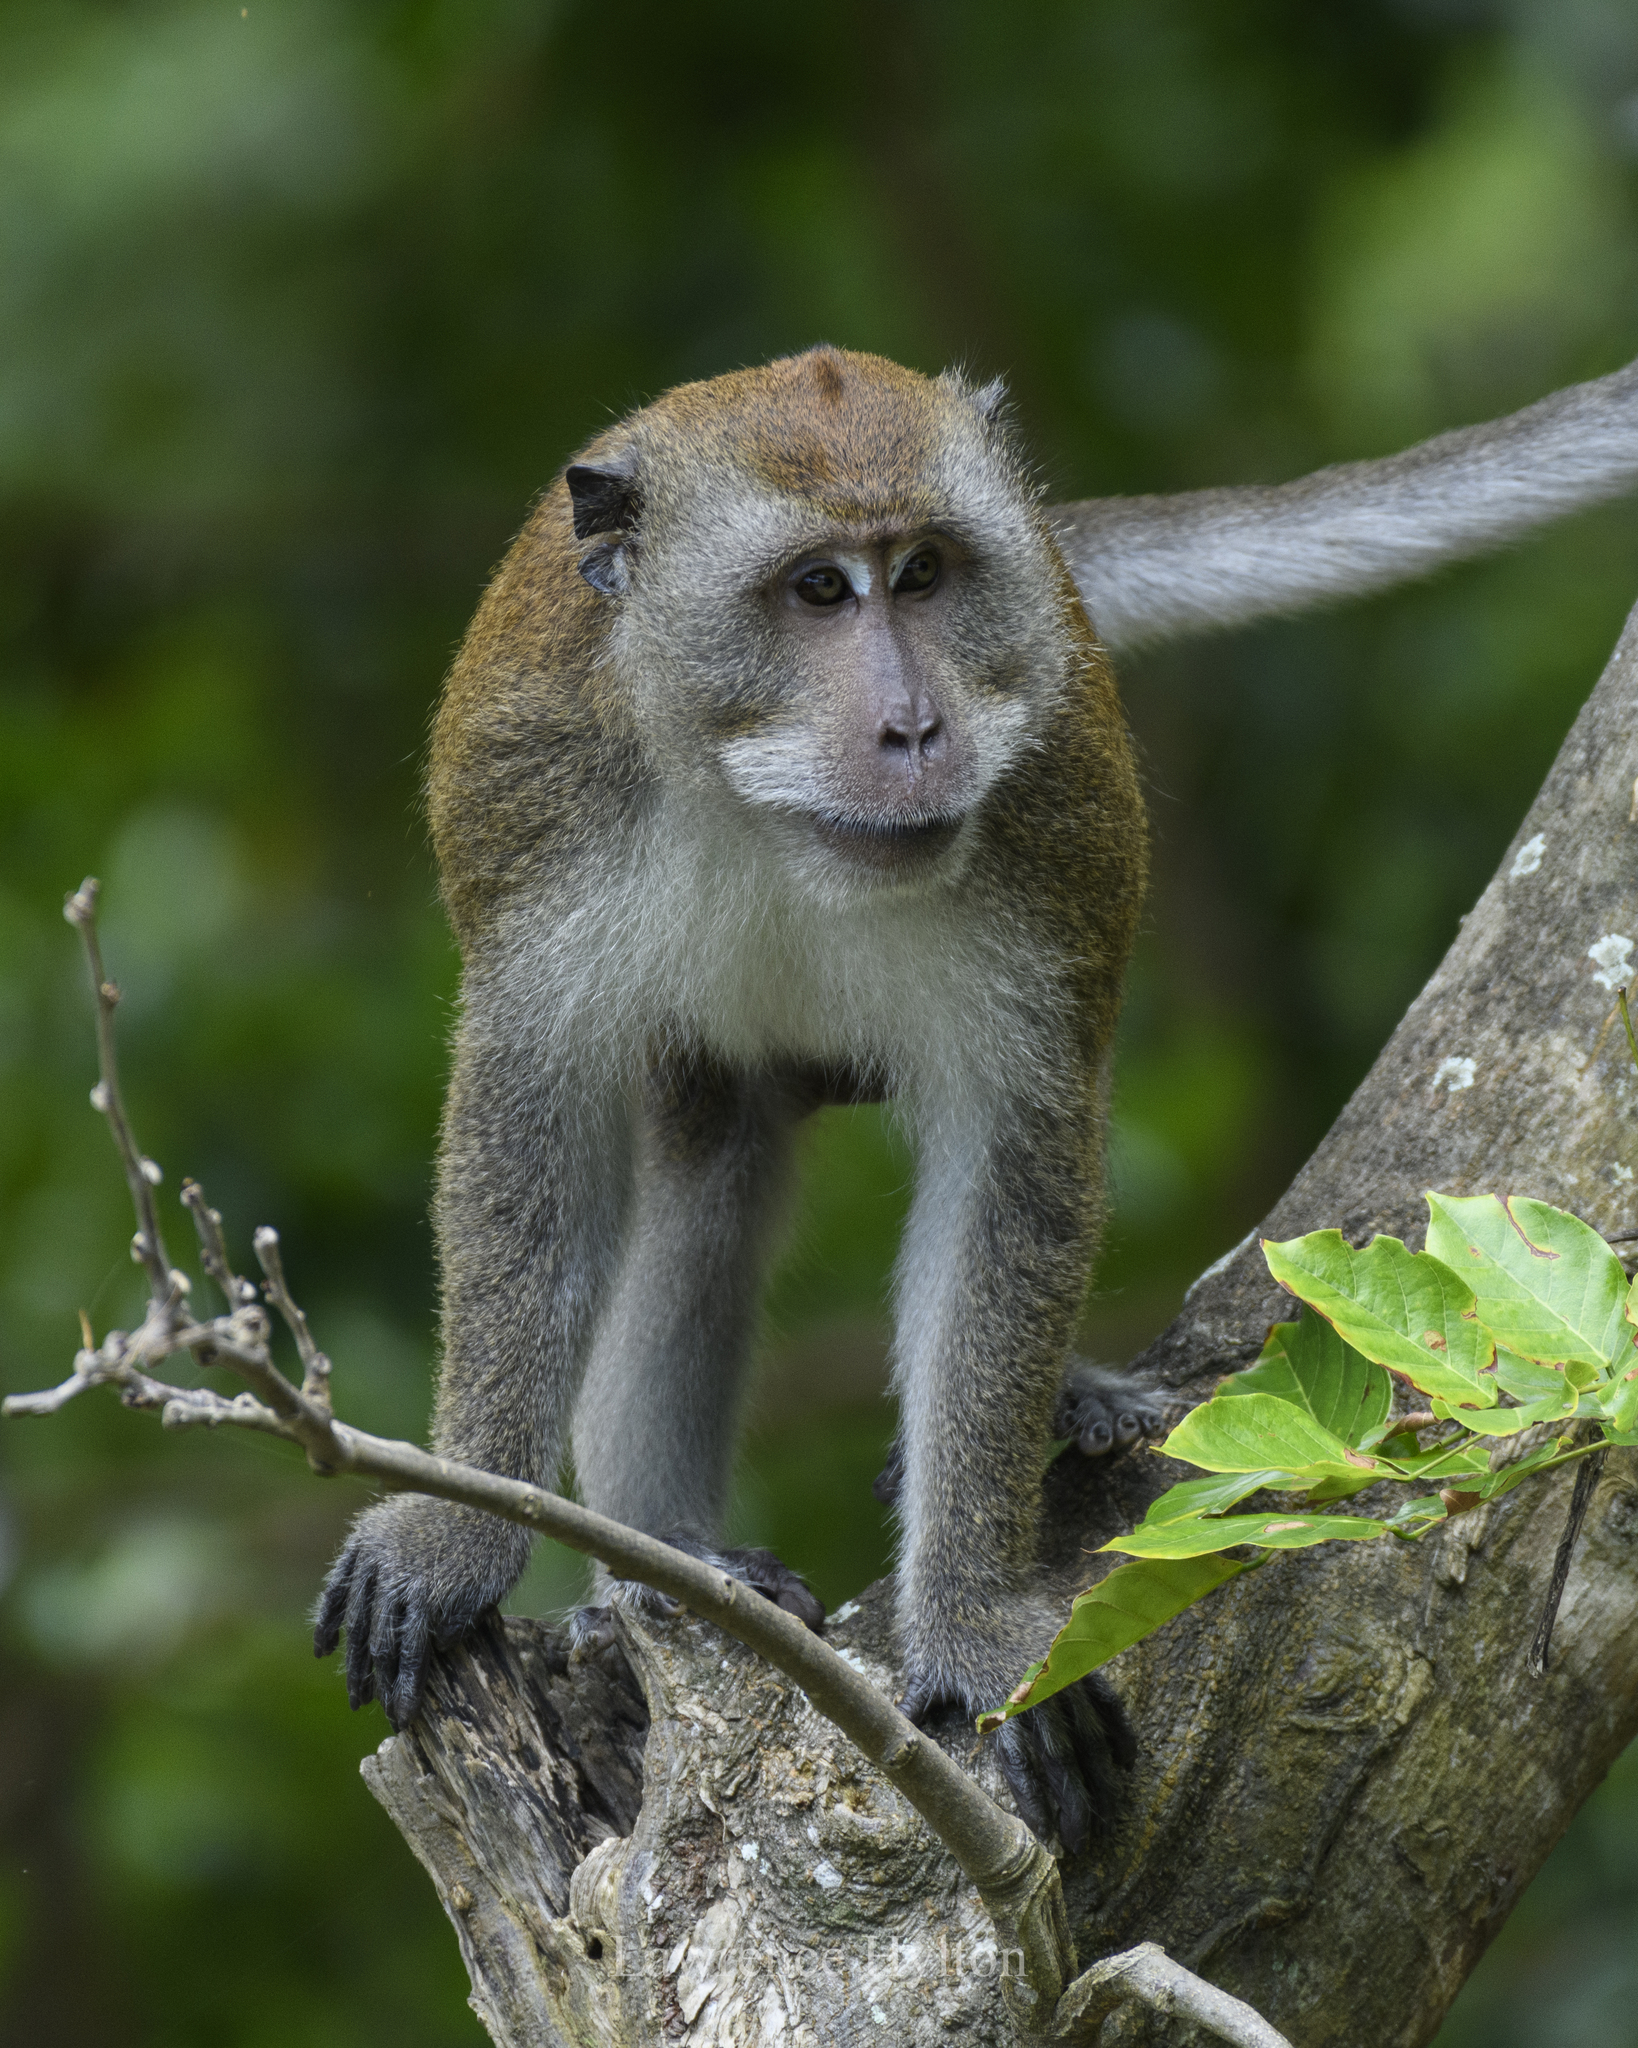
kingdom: Animalia
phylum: Chordata
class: Mammalia
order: Primates
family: Cercopithecidae
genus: Macaca
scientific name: Macaca fascicularis
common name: Crab-eating macaque
